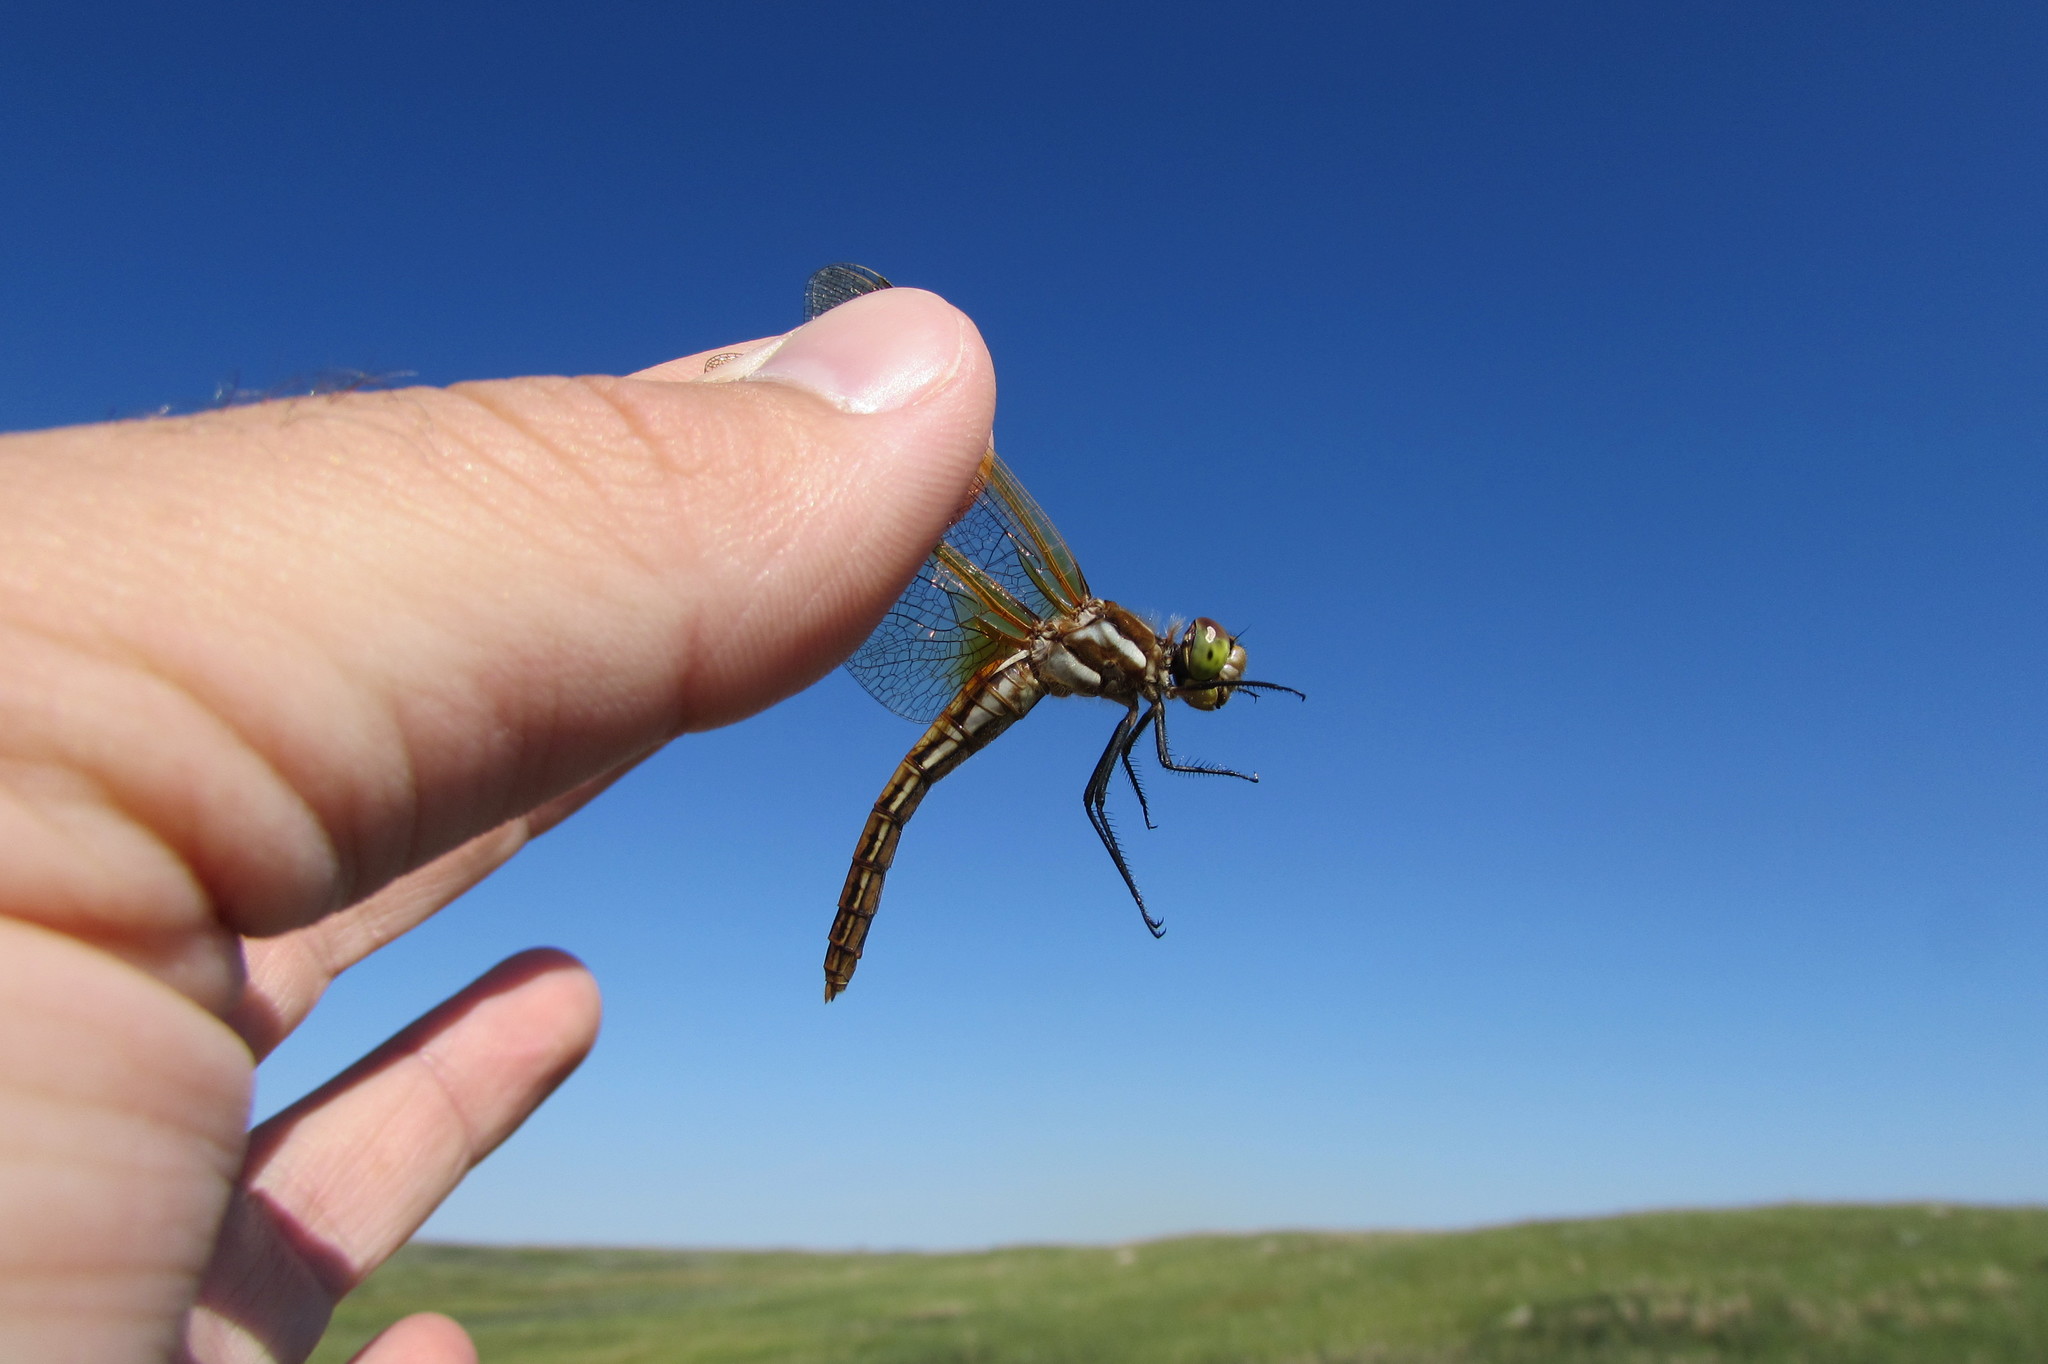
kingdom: Animalia
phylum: Arthropoda
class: Insecta
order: Odonata
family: Libellulidae
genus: Sympetrum
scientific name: Sympetrum madidum
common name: Red-veined meadowhawk
